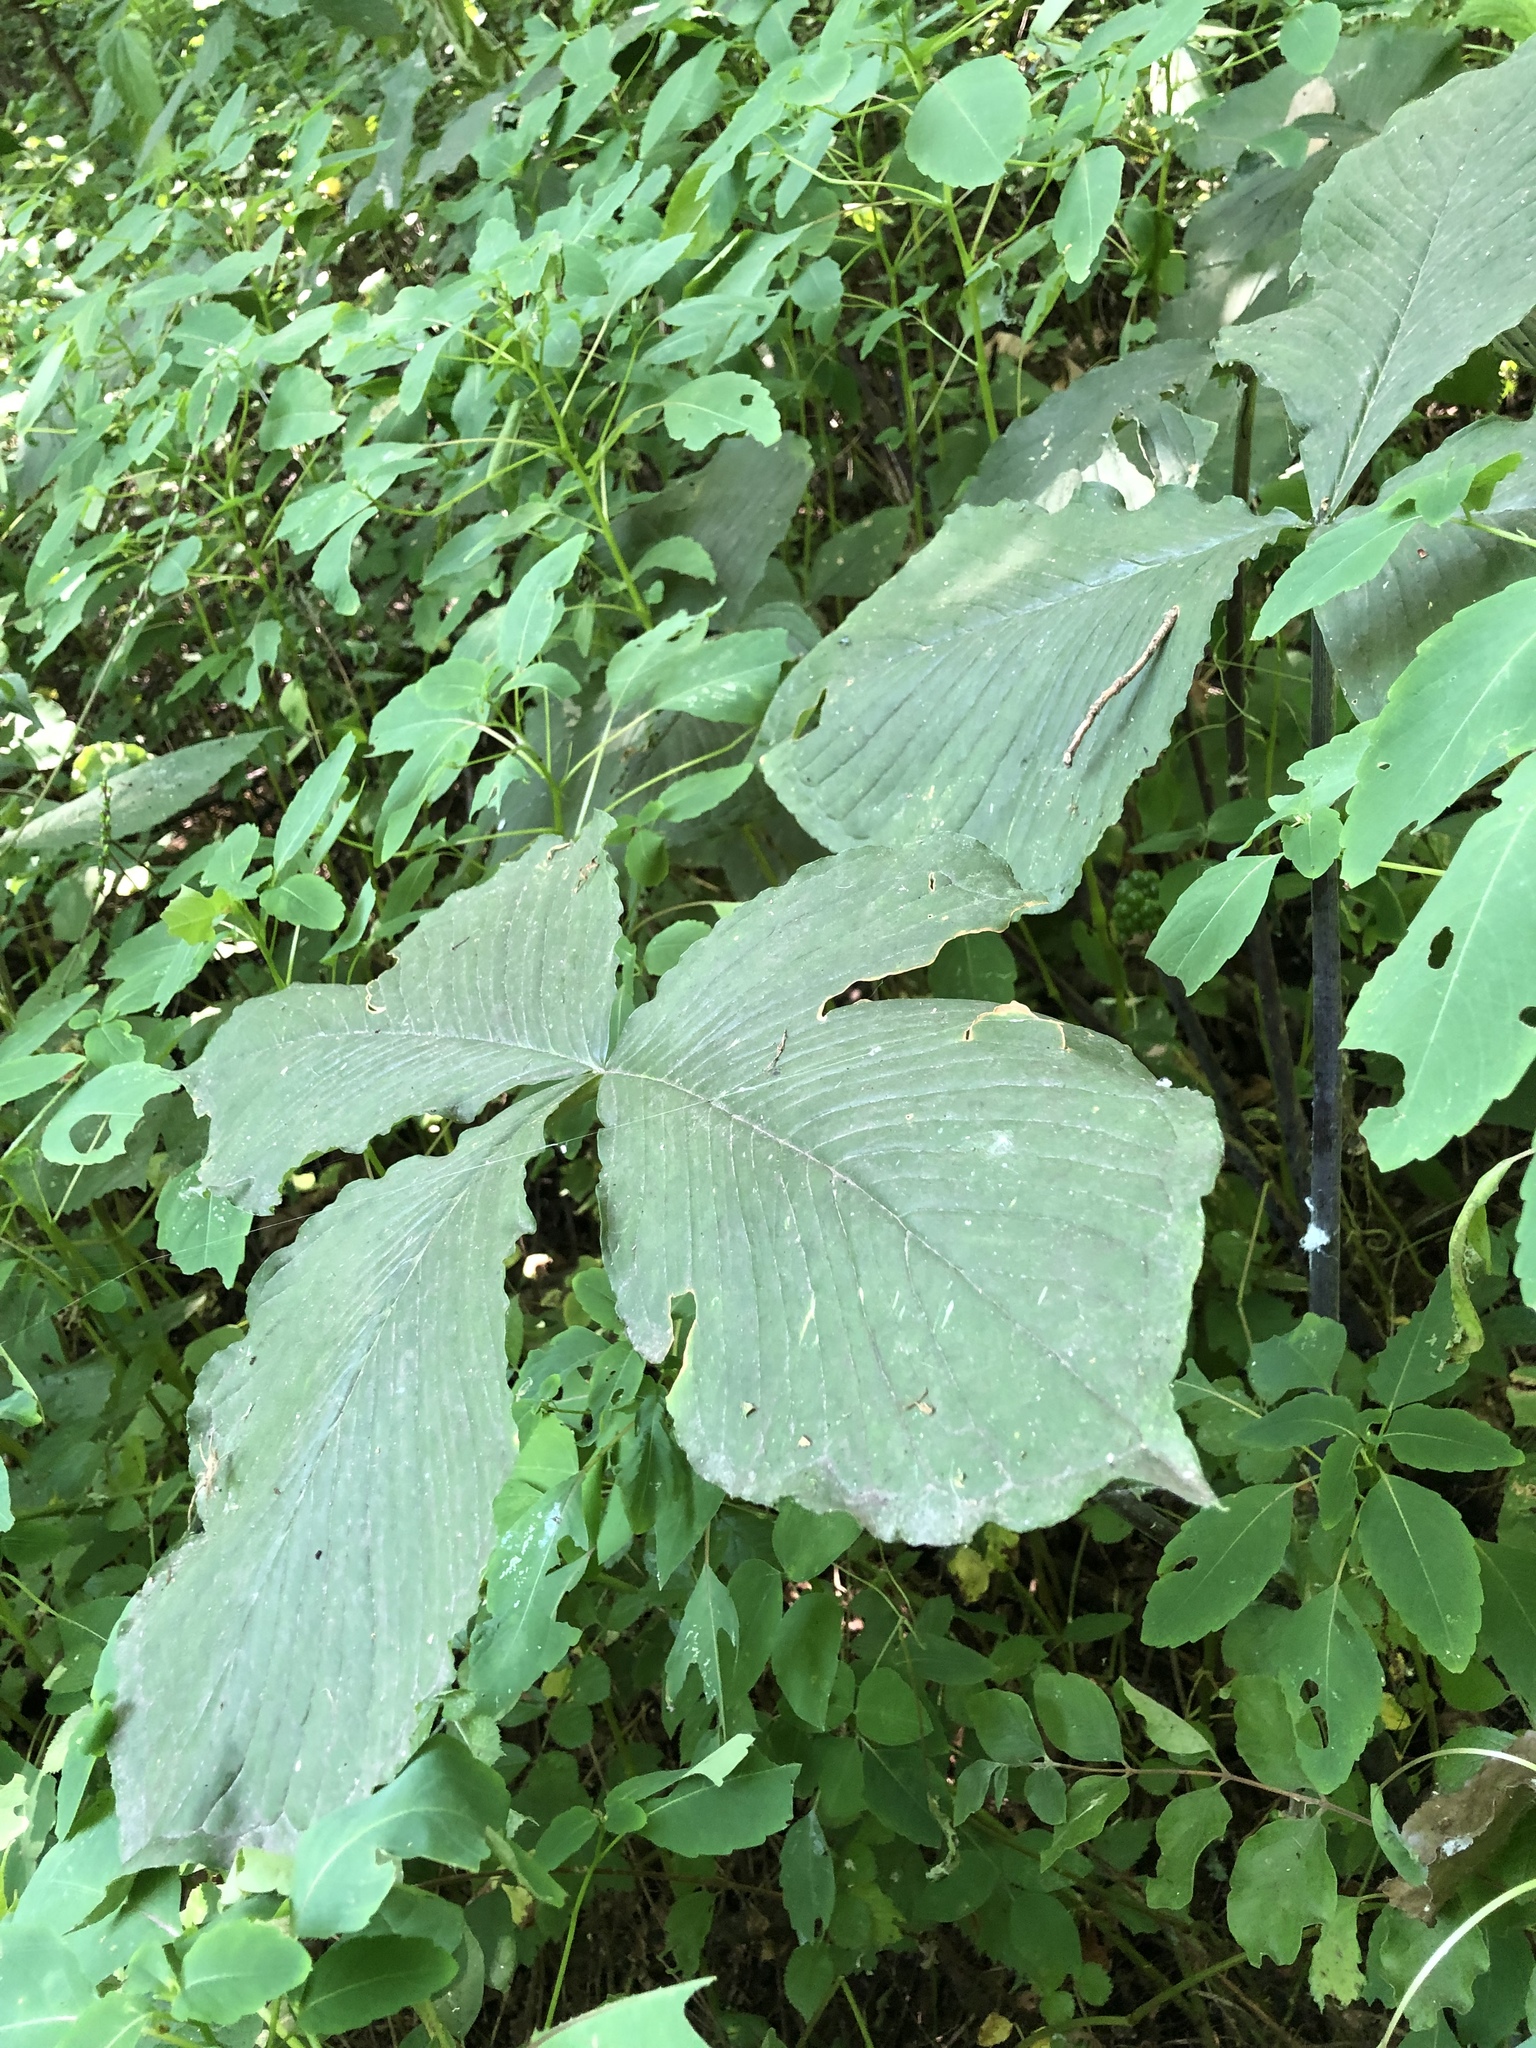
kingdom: Plantae
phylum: Tracheophyta
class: Liliopsida
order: Alismatales
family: Araceae
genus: Arisaema
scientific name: Arisaema triphyllum
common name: Jack-in-the-pulpit
